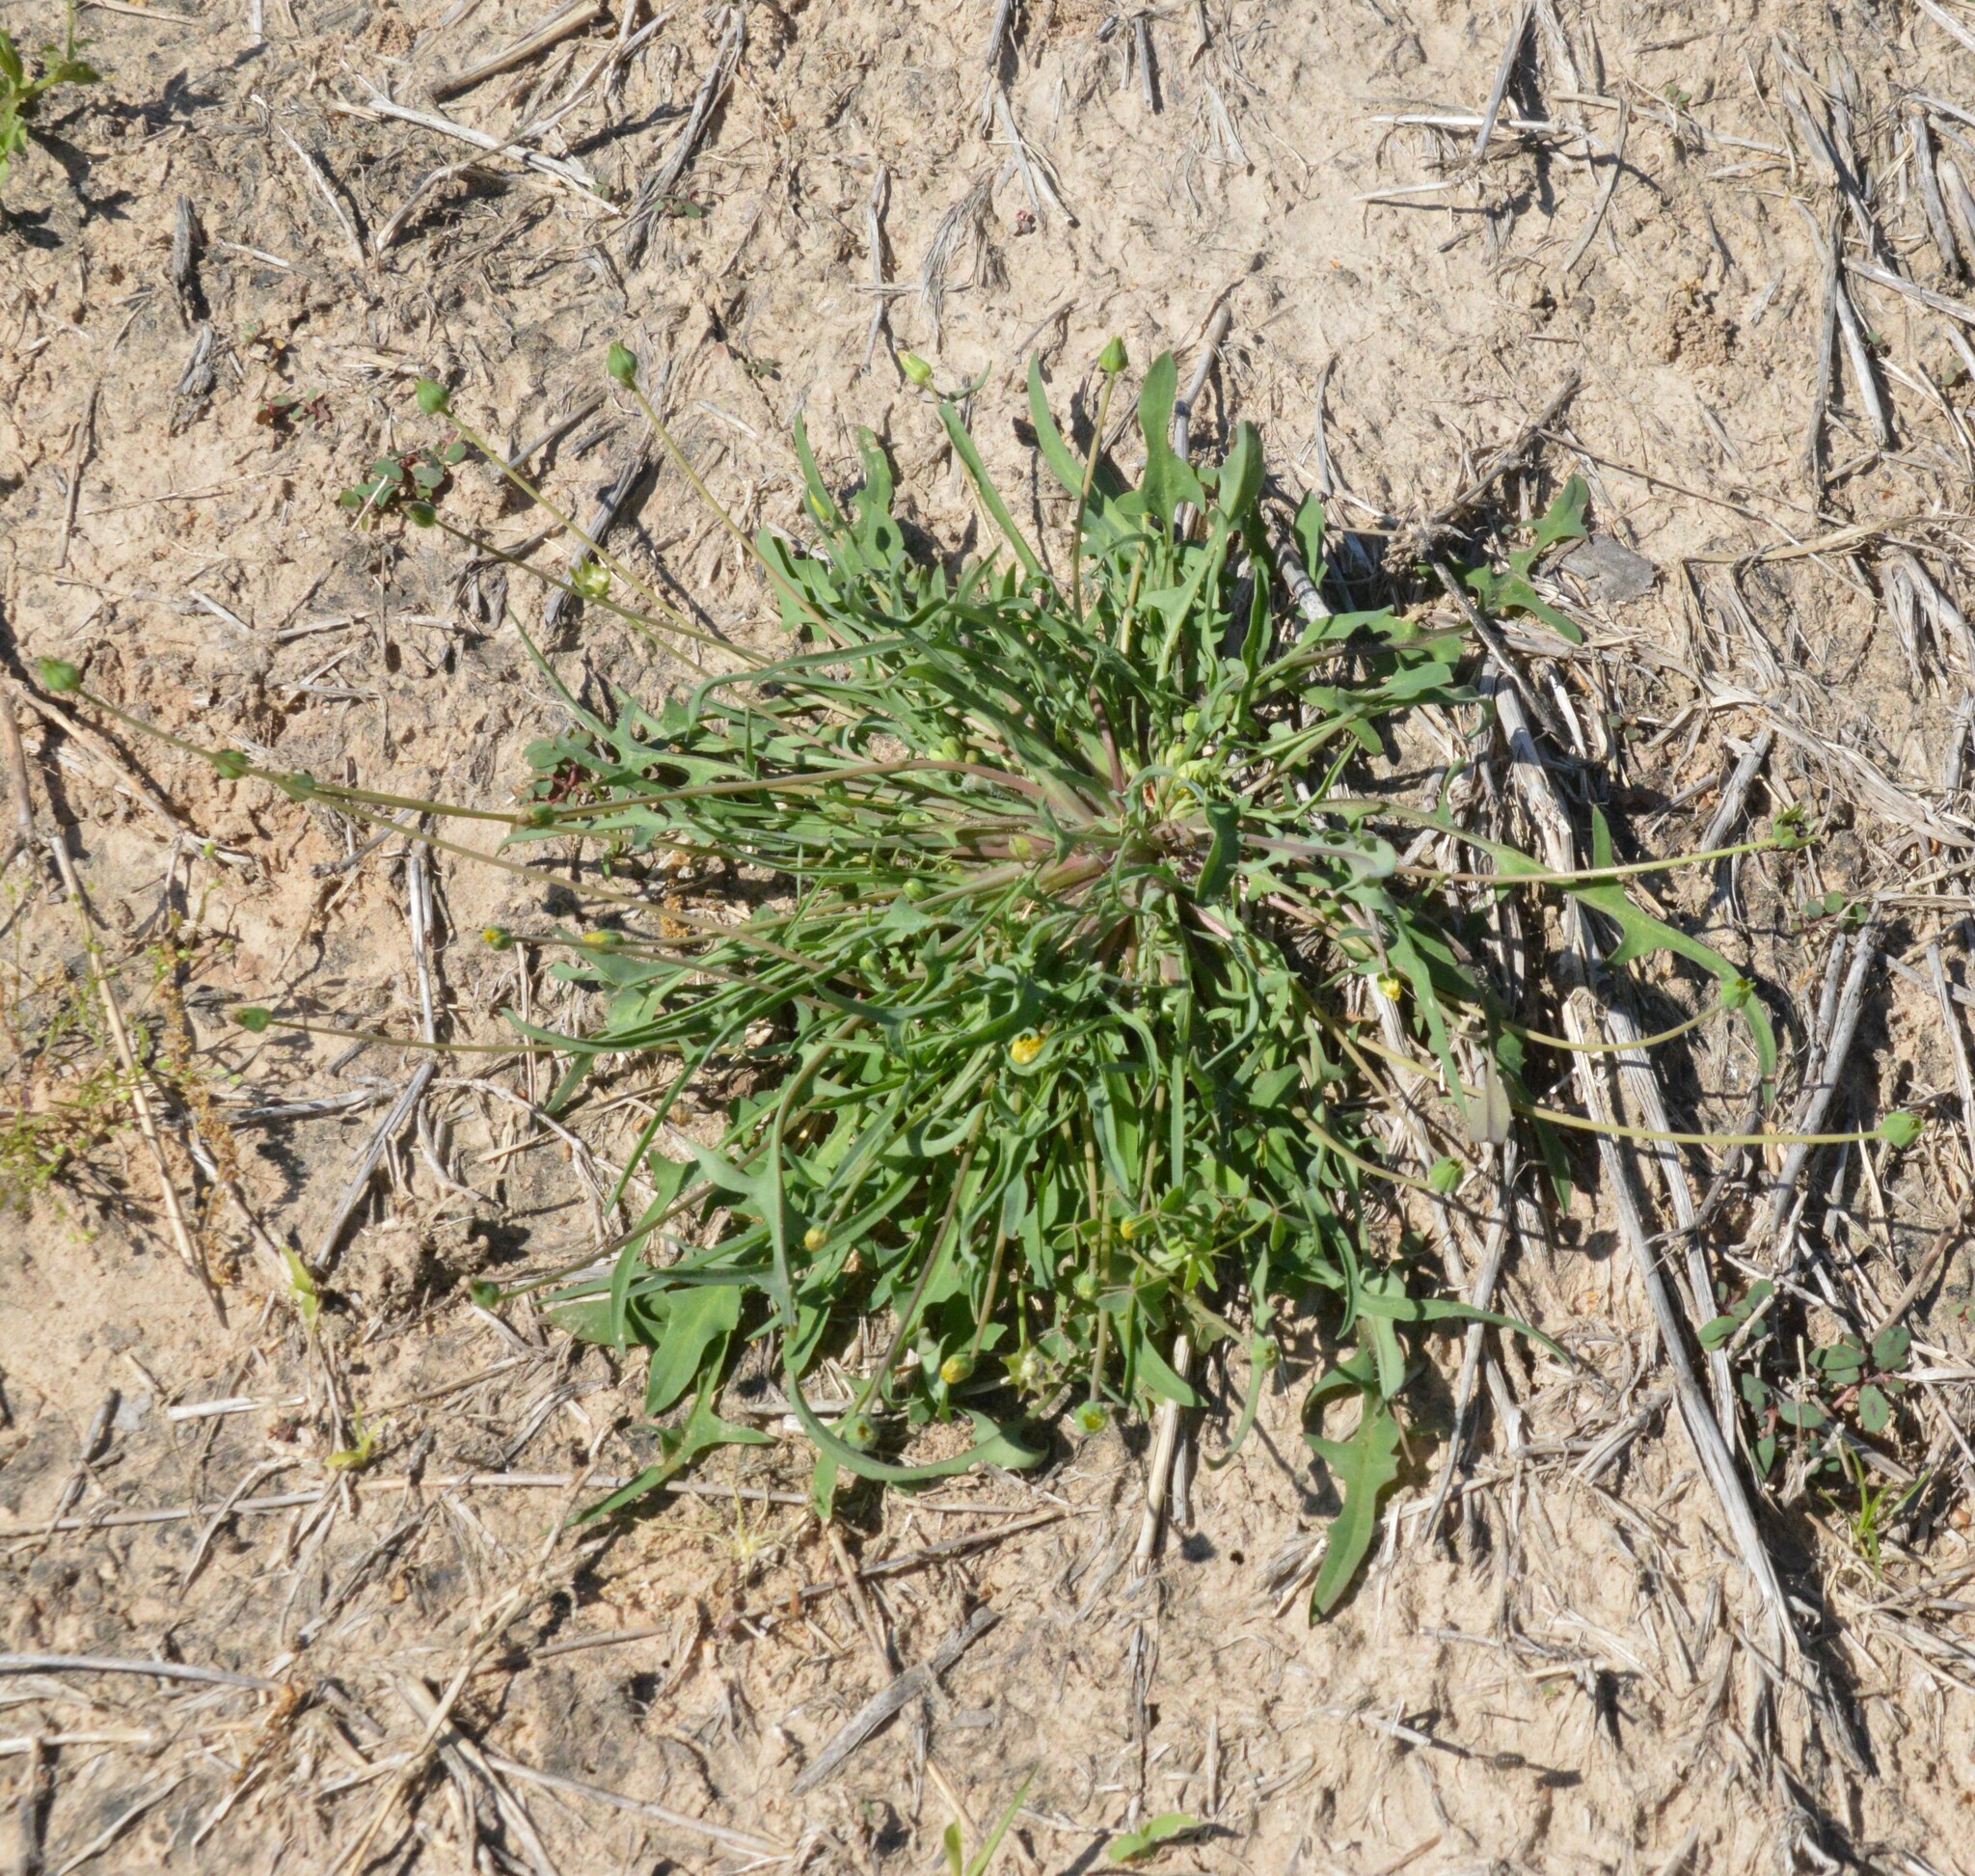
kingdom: Plantae
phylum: Tracheophyta
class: Magnoliopsida
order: Asterales
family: Asteraceae
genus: Krigia
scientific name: Krigia cespitosa
